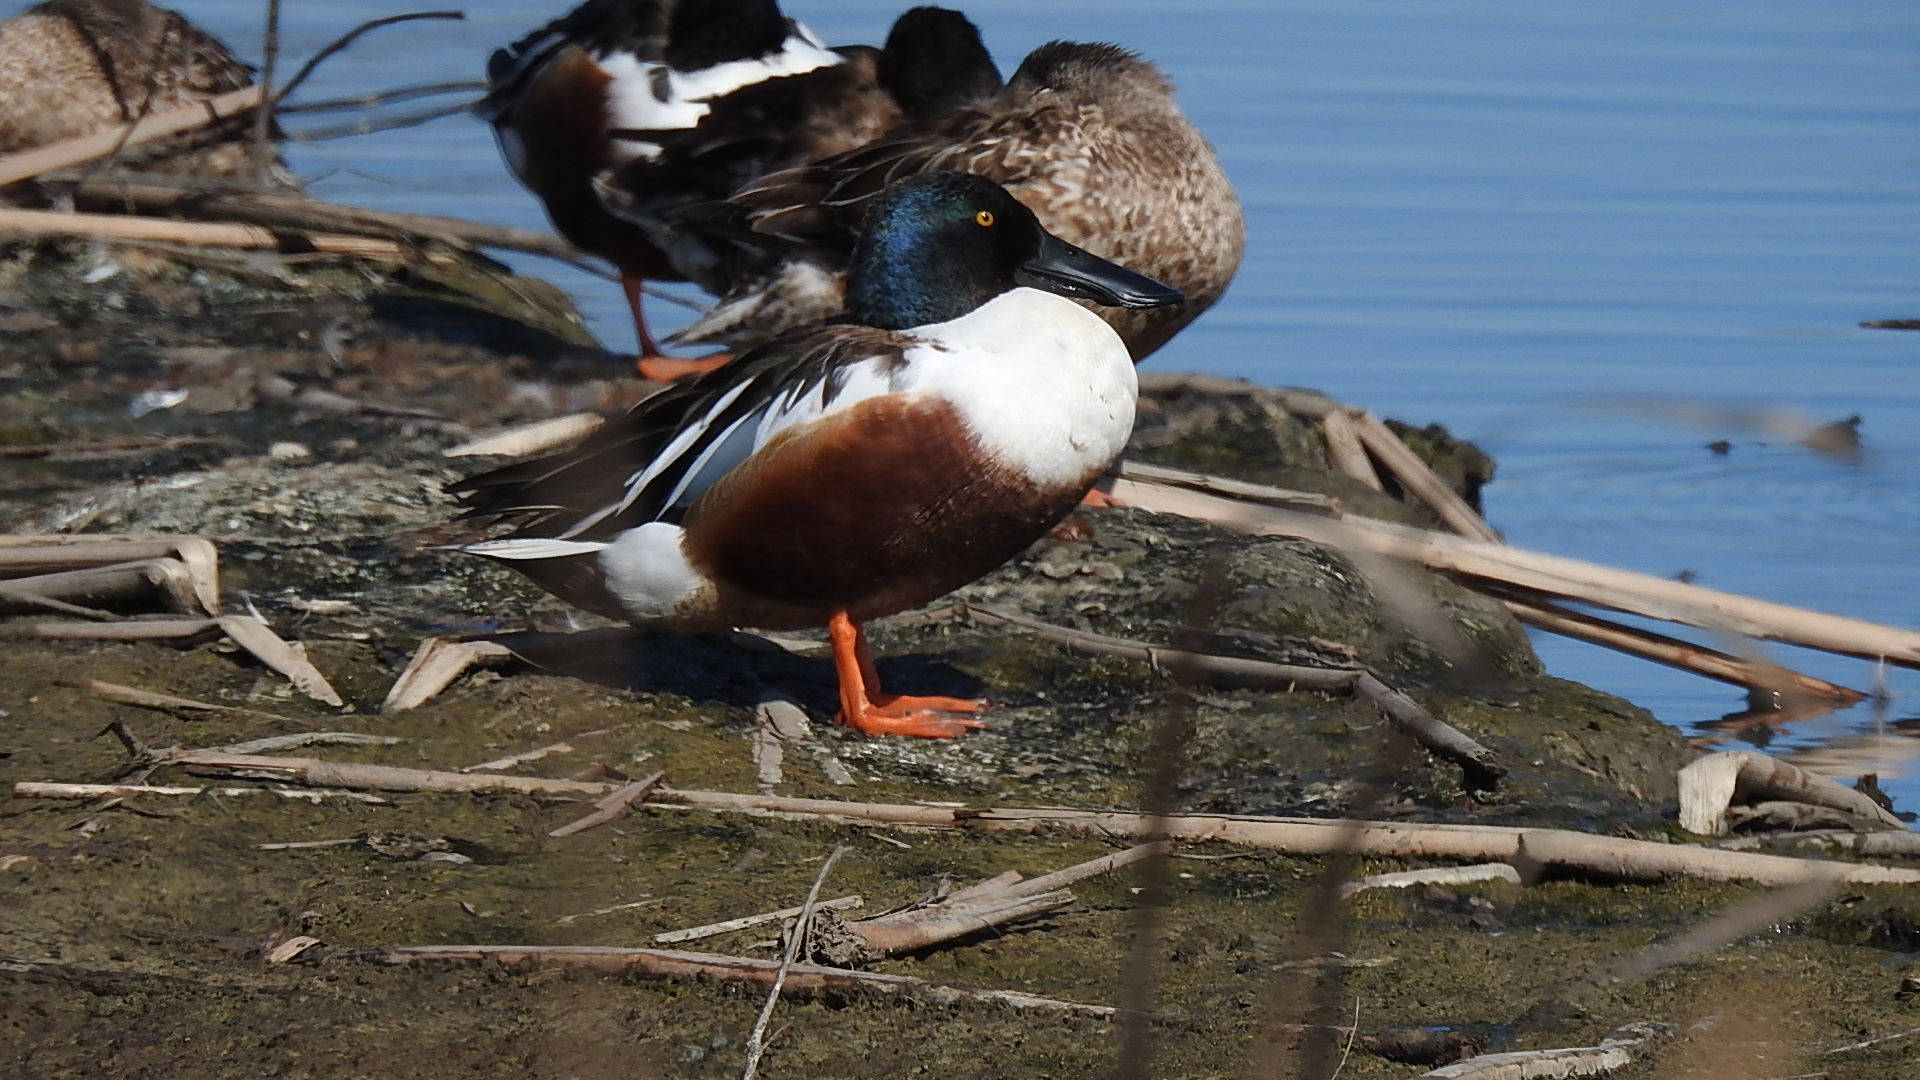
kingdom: Animalia
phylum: Chordata
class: Aves
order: Anseriformes
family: Anatidae
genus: Spatula
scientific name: Spatula clypeata
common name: Northern shoveler
